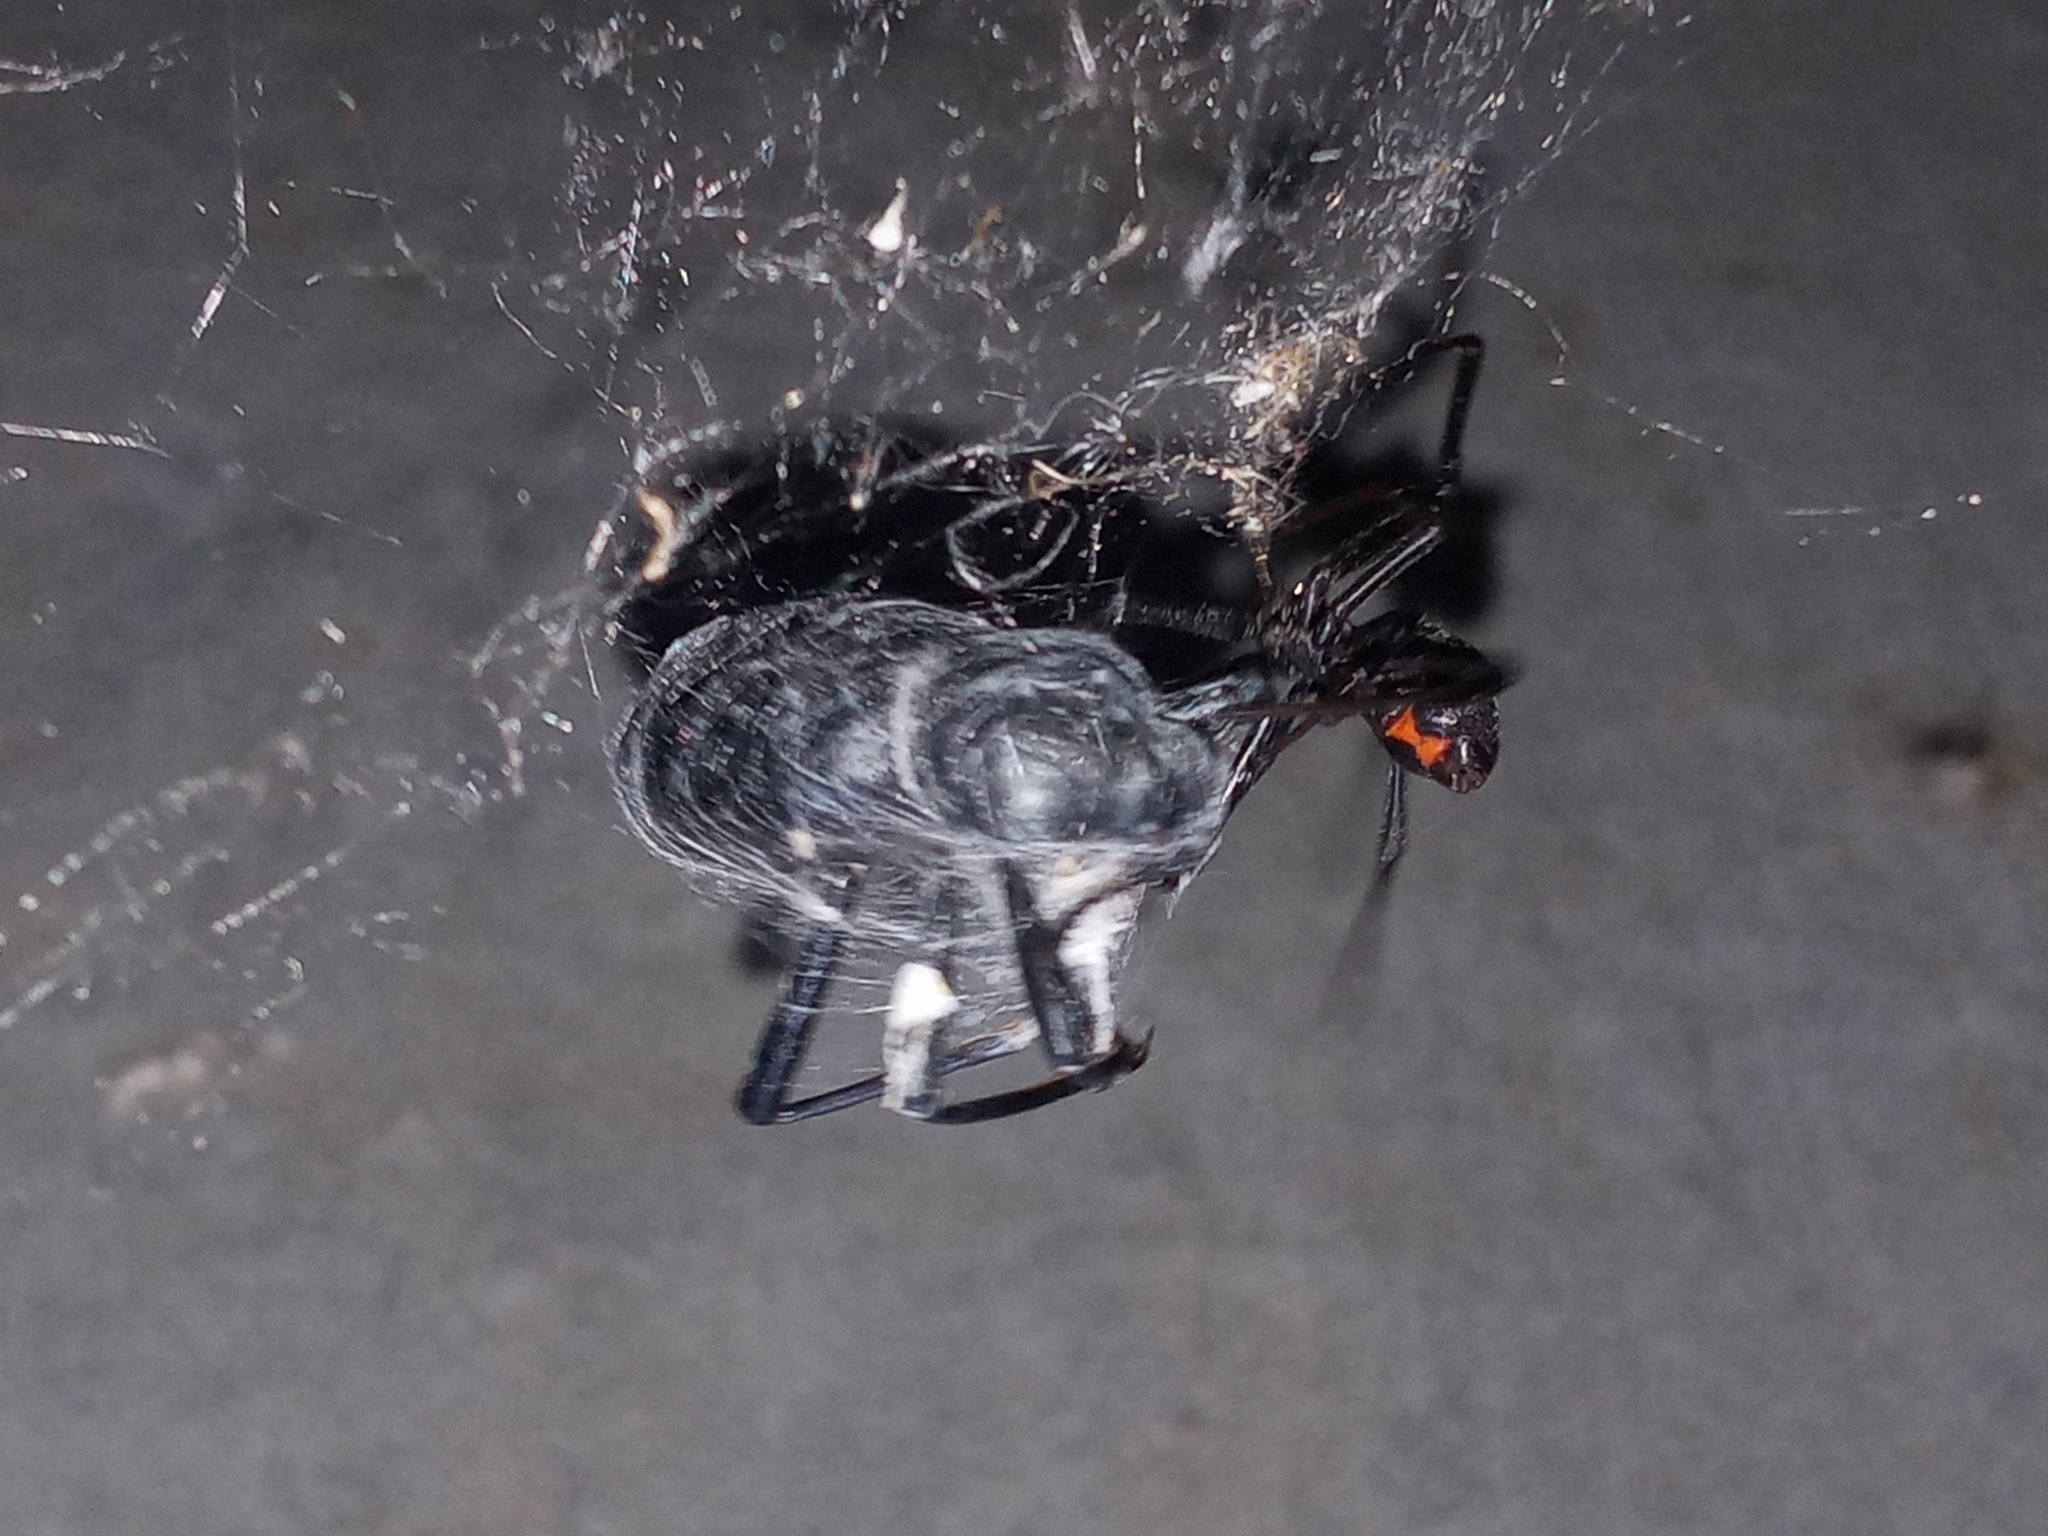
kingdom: Animalia
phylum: Arthropoda
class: Arachnida
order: Araneae
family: Theridiidae
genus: Latrodectus
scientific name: Latrodectus hesperus
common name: Western black widow
